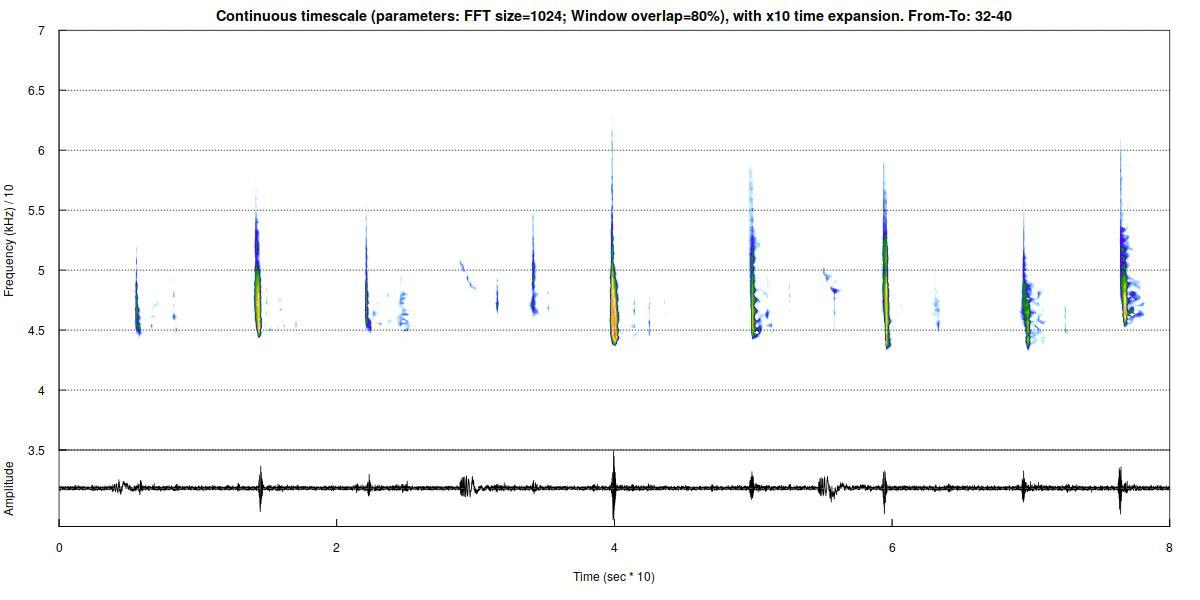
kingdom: Animalia
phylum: Chordata
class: Mammalia
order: Chiroptera
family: Vespertilionidae
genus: Pipistrellus
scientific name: Pipistrellus pipistrellus
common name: Common pipistrelle
